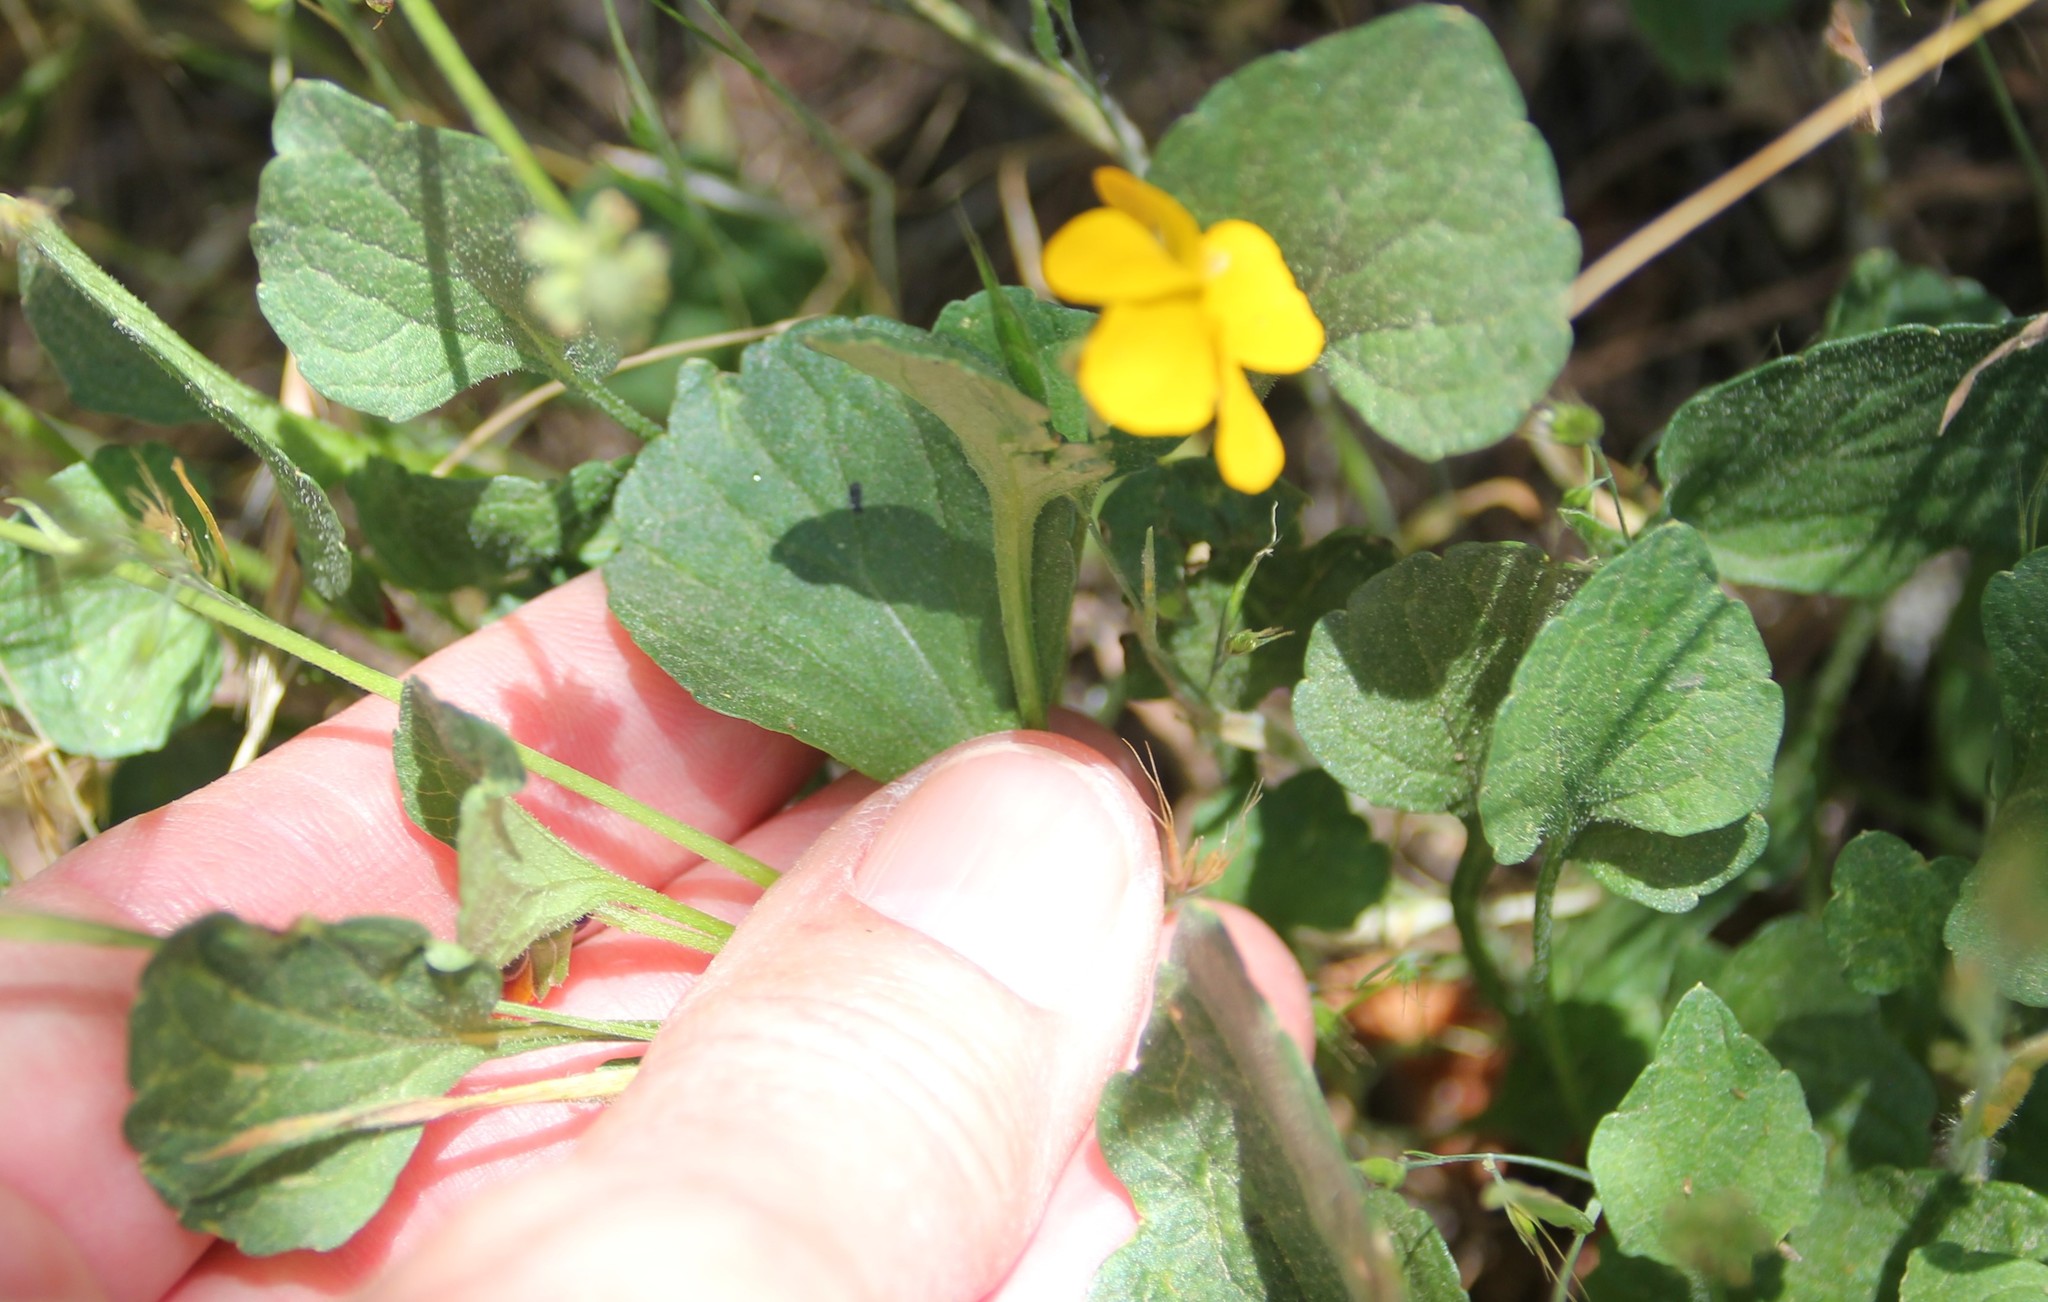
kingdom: Plantae
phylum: Tracheophyta
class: Magnoliopsida
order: Malpighiales
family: Violaceae
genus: Viola
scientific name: Viola pedunculata
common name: California golden violet
